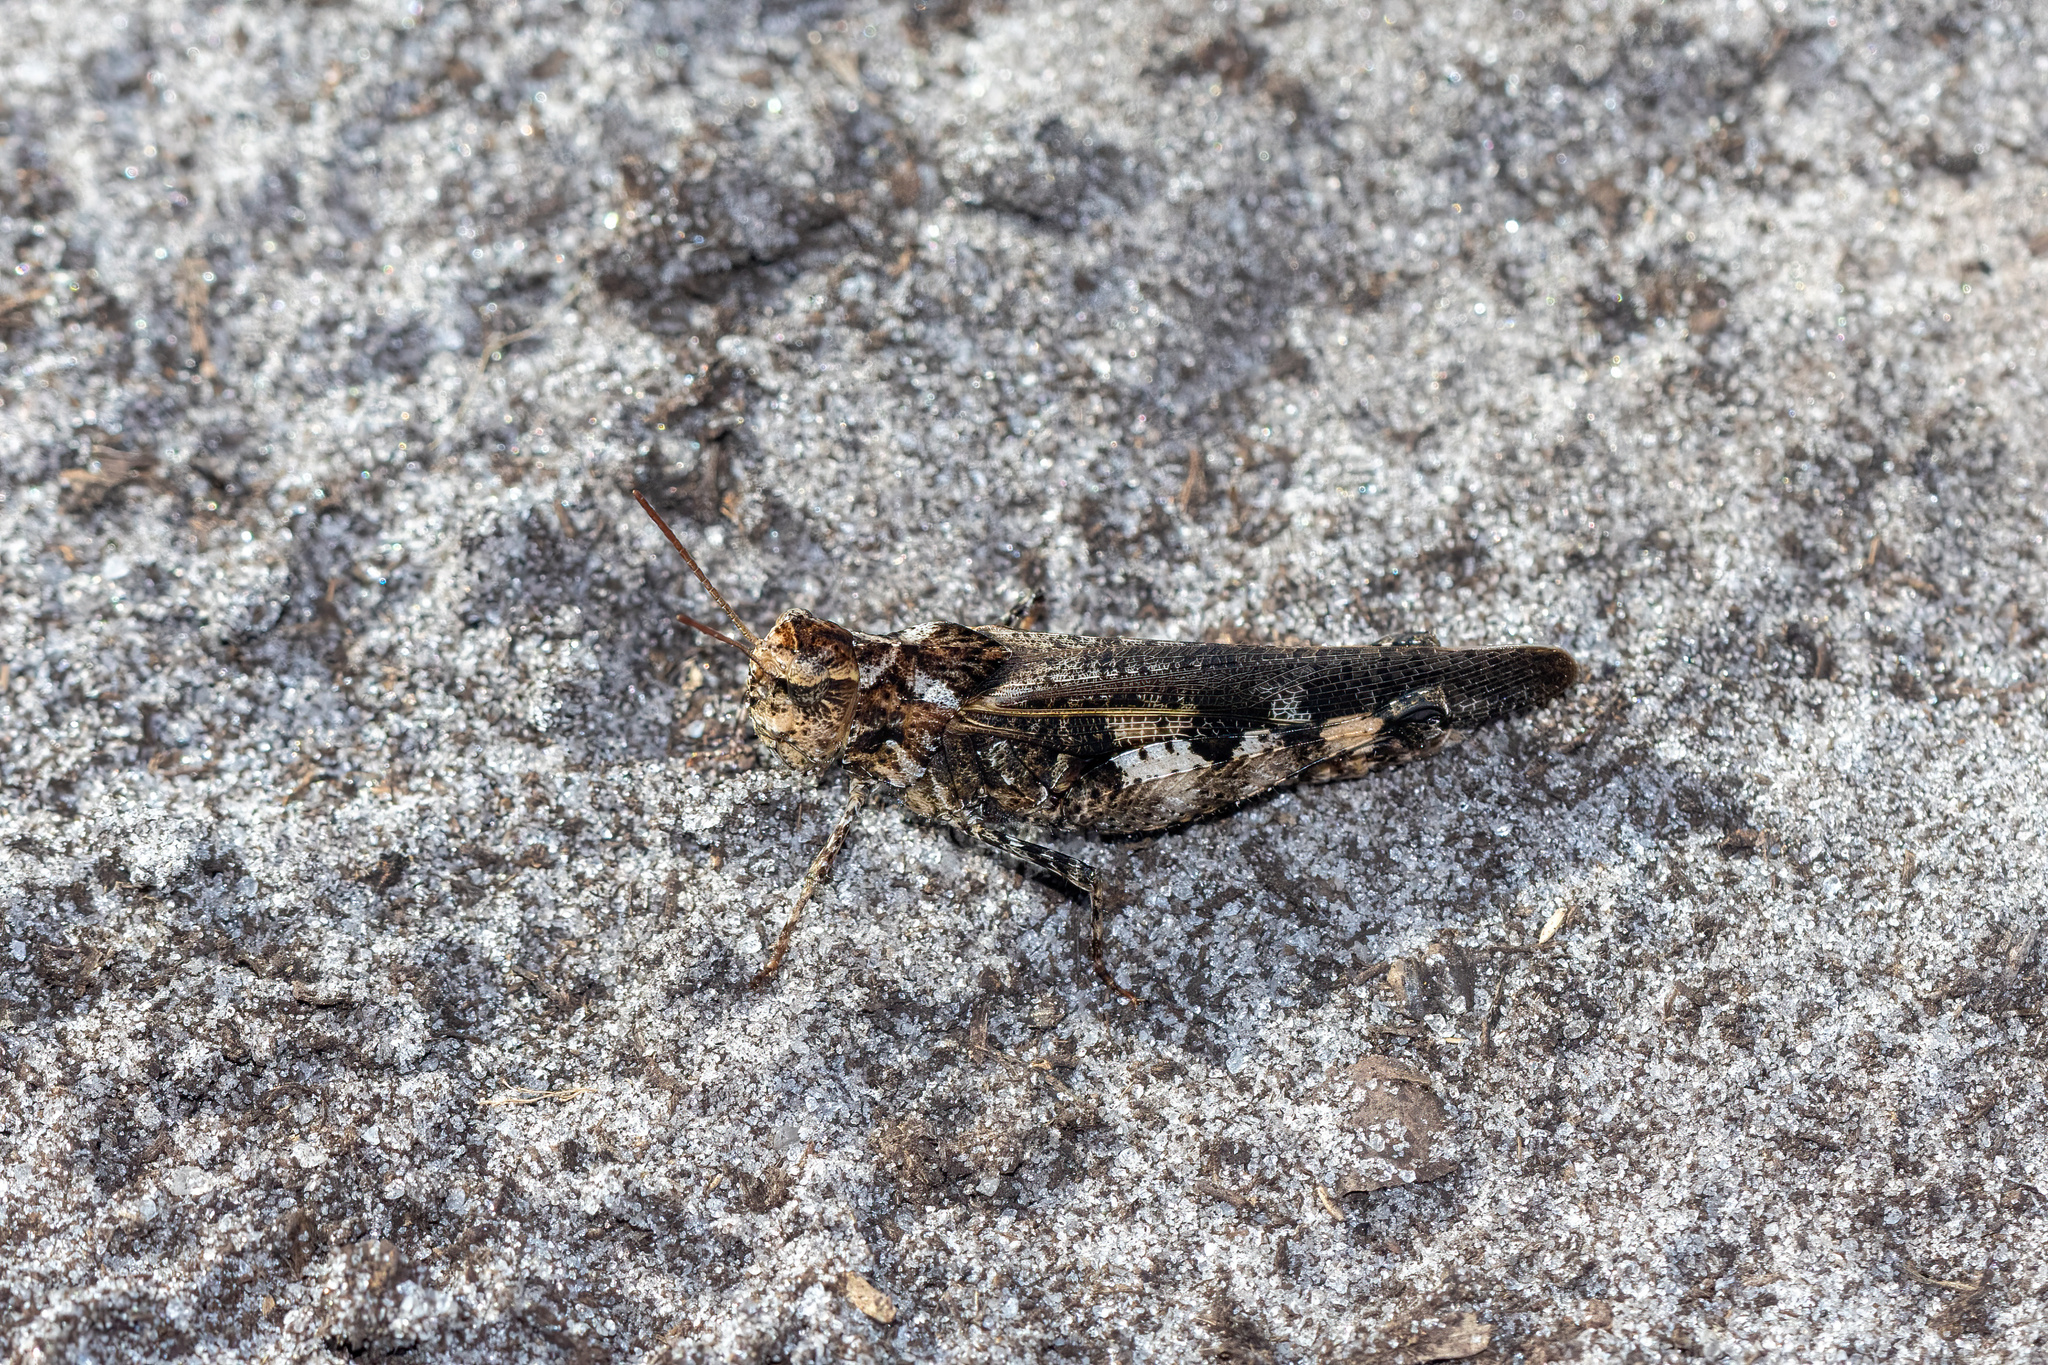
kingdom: Animalia
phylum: Arthropoda
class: Insecta
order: Orthoptera
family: Acrididae
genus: Chortophaga
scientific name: Chortophaga australior
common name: Southern green-striped grasshopper
